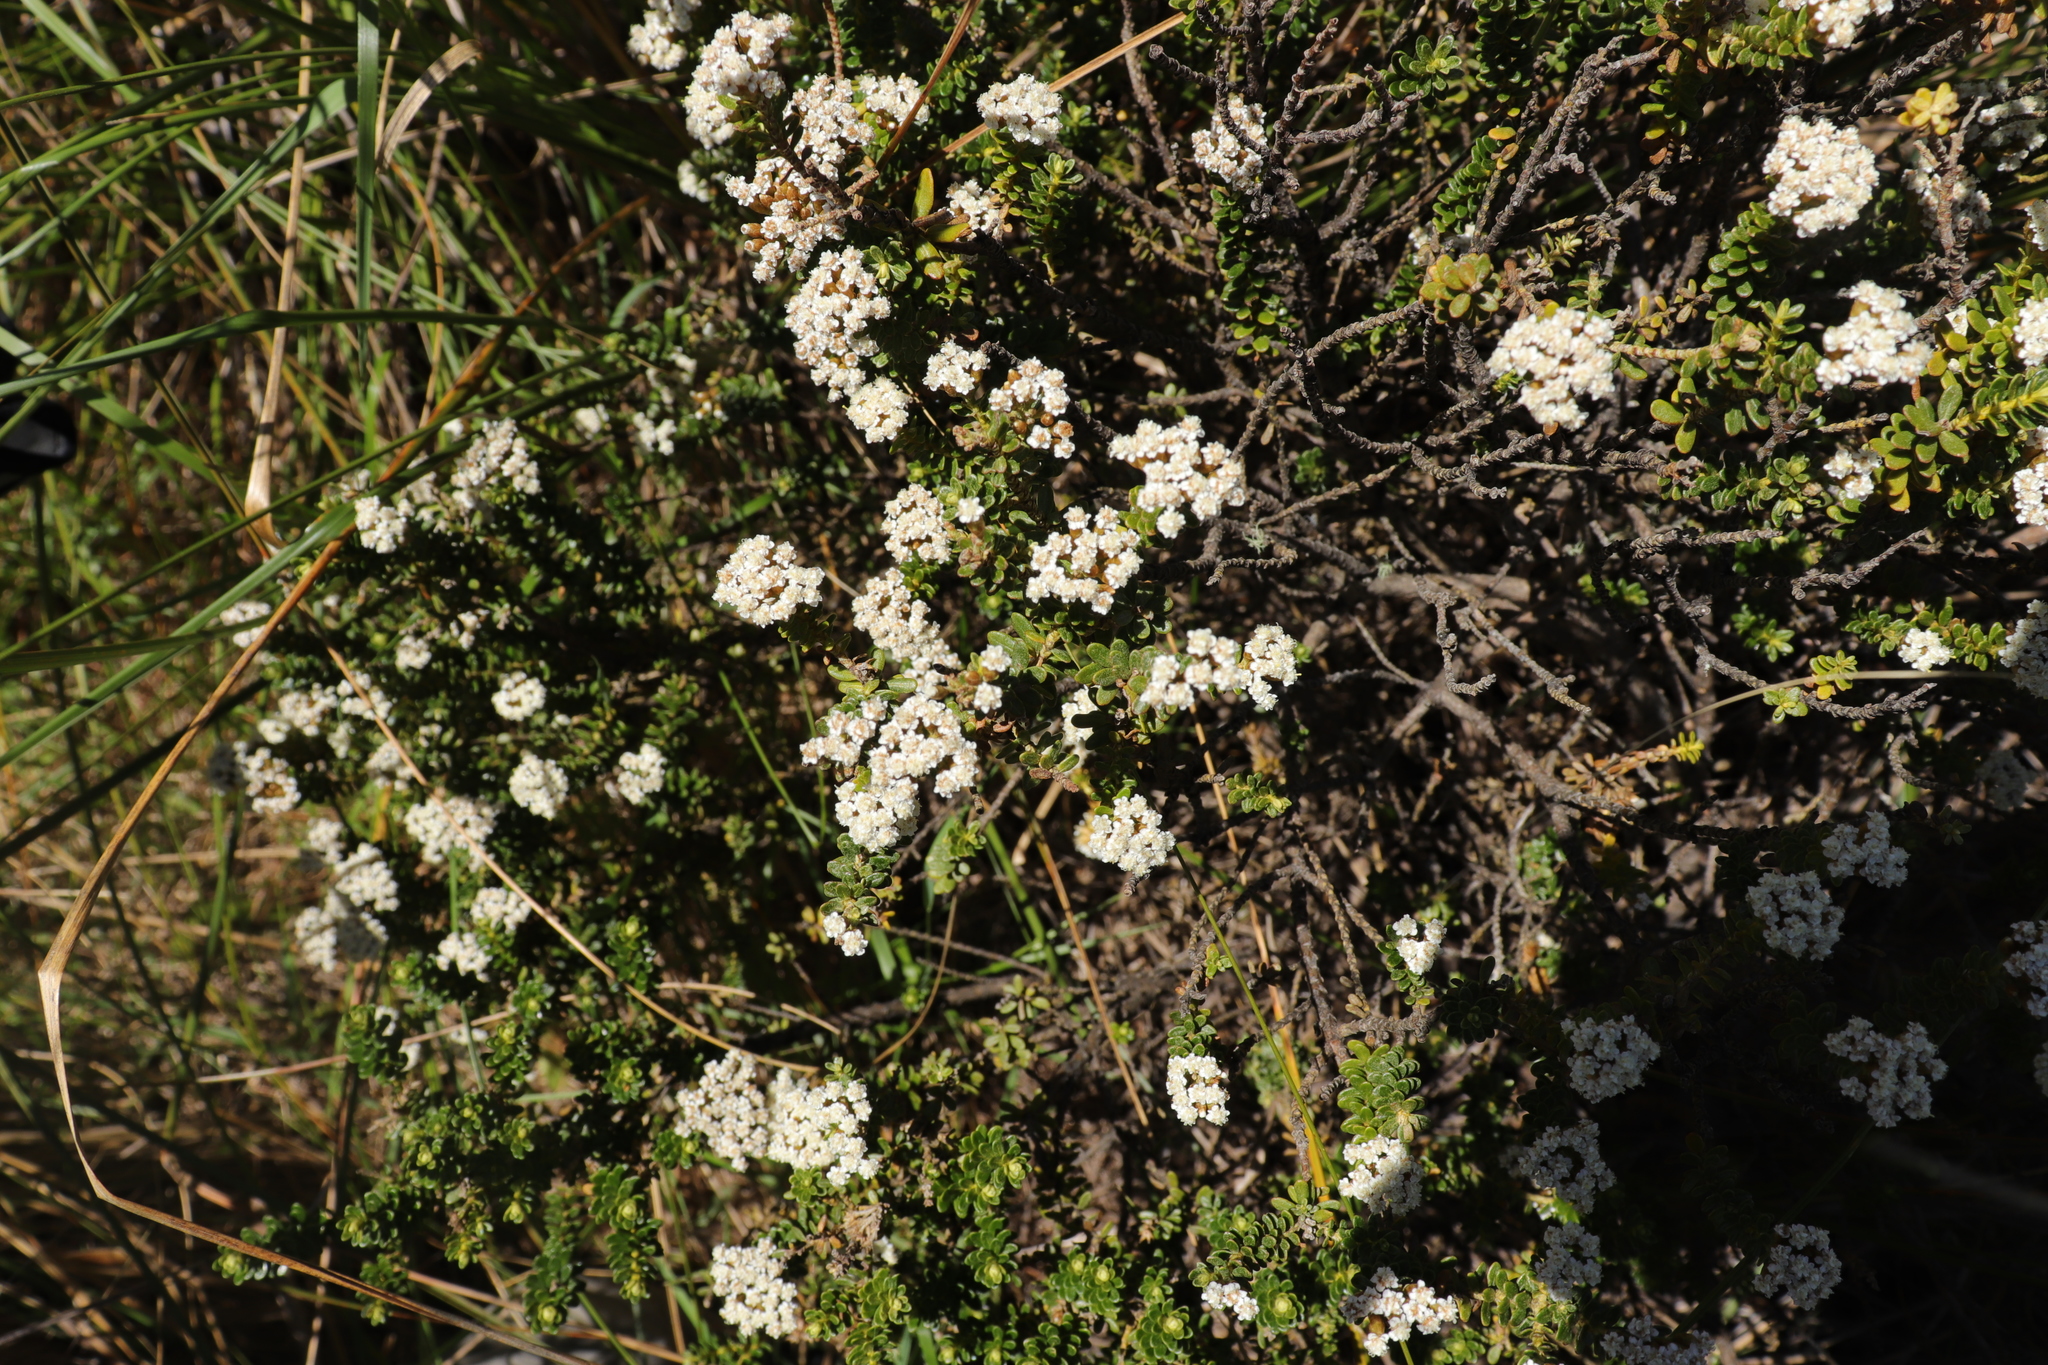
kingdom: Plantae
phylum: Tracheophyta
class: Magnoliopsida
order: Asterales
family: Asteraceae
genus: Ozothamnus
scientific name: Ozothamnus leptophyllus
